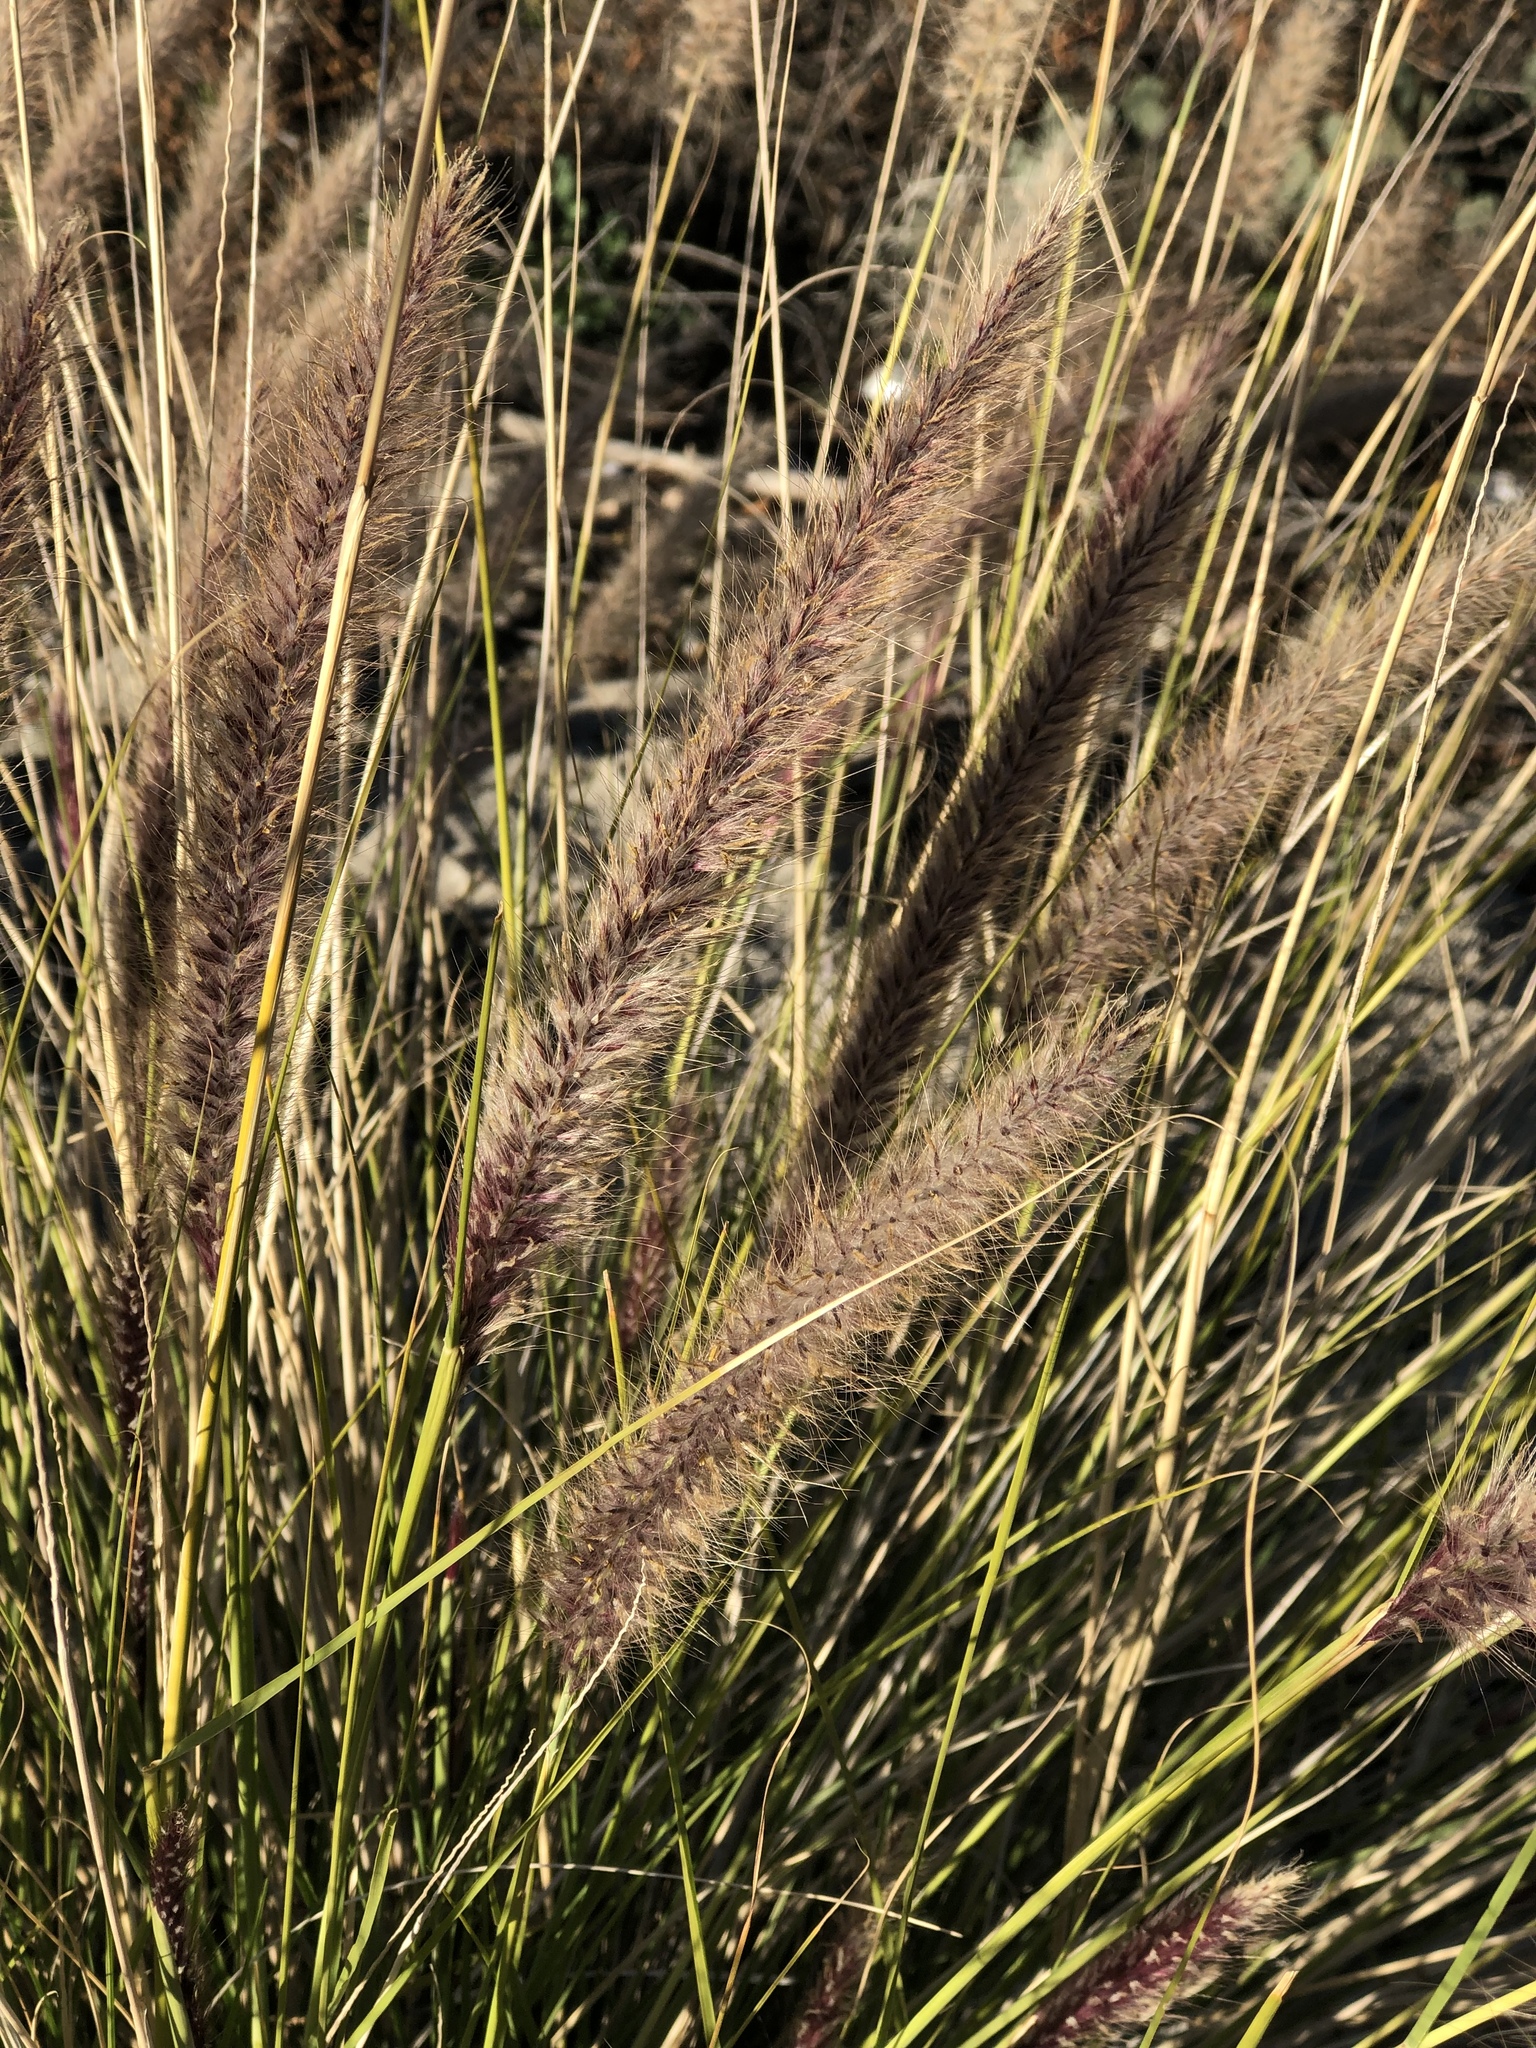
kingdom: Plantae
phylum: Tracheophyta
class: Liliopsida
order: Poales
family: Poaceae
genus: Cenchrus
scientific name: Cenchrus setaceus
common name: Crimson fountaingrass
